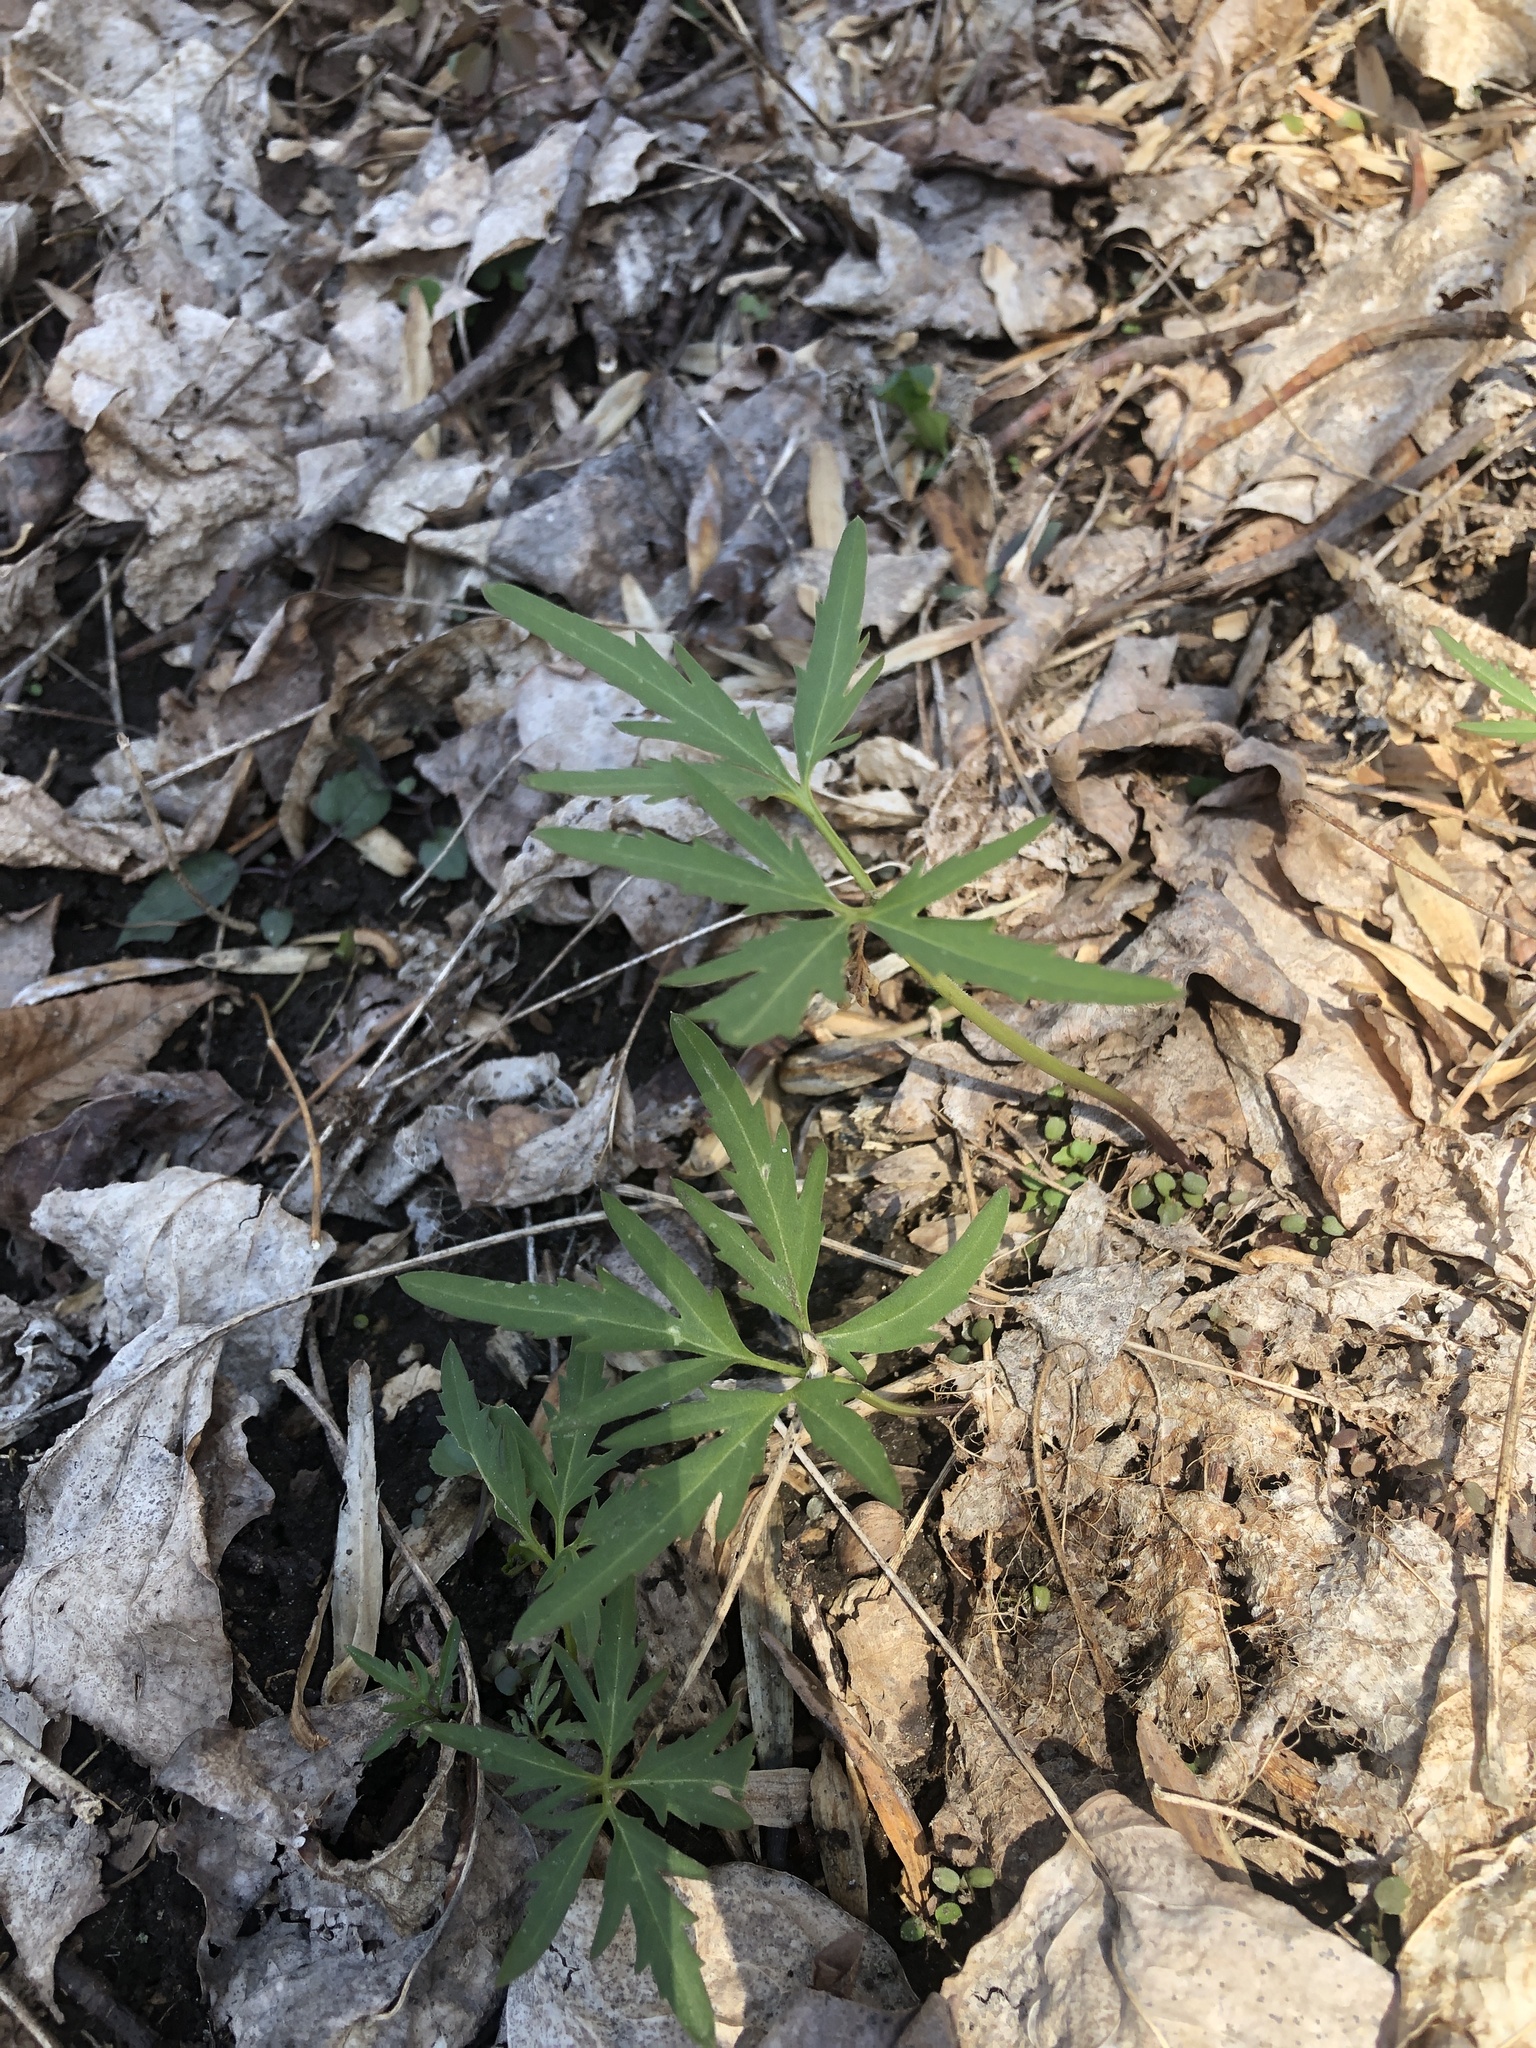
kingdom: Plantae
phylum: Tracheophyta
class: Magnoliopsida
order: Brassicales
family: Brassicaceae
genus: Cardamine
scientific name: Cardamine concatenata
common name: Cut-leaf toothcup
